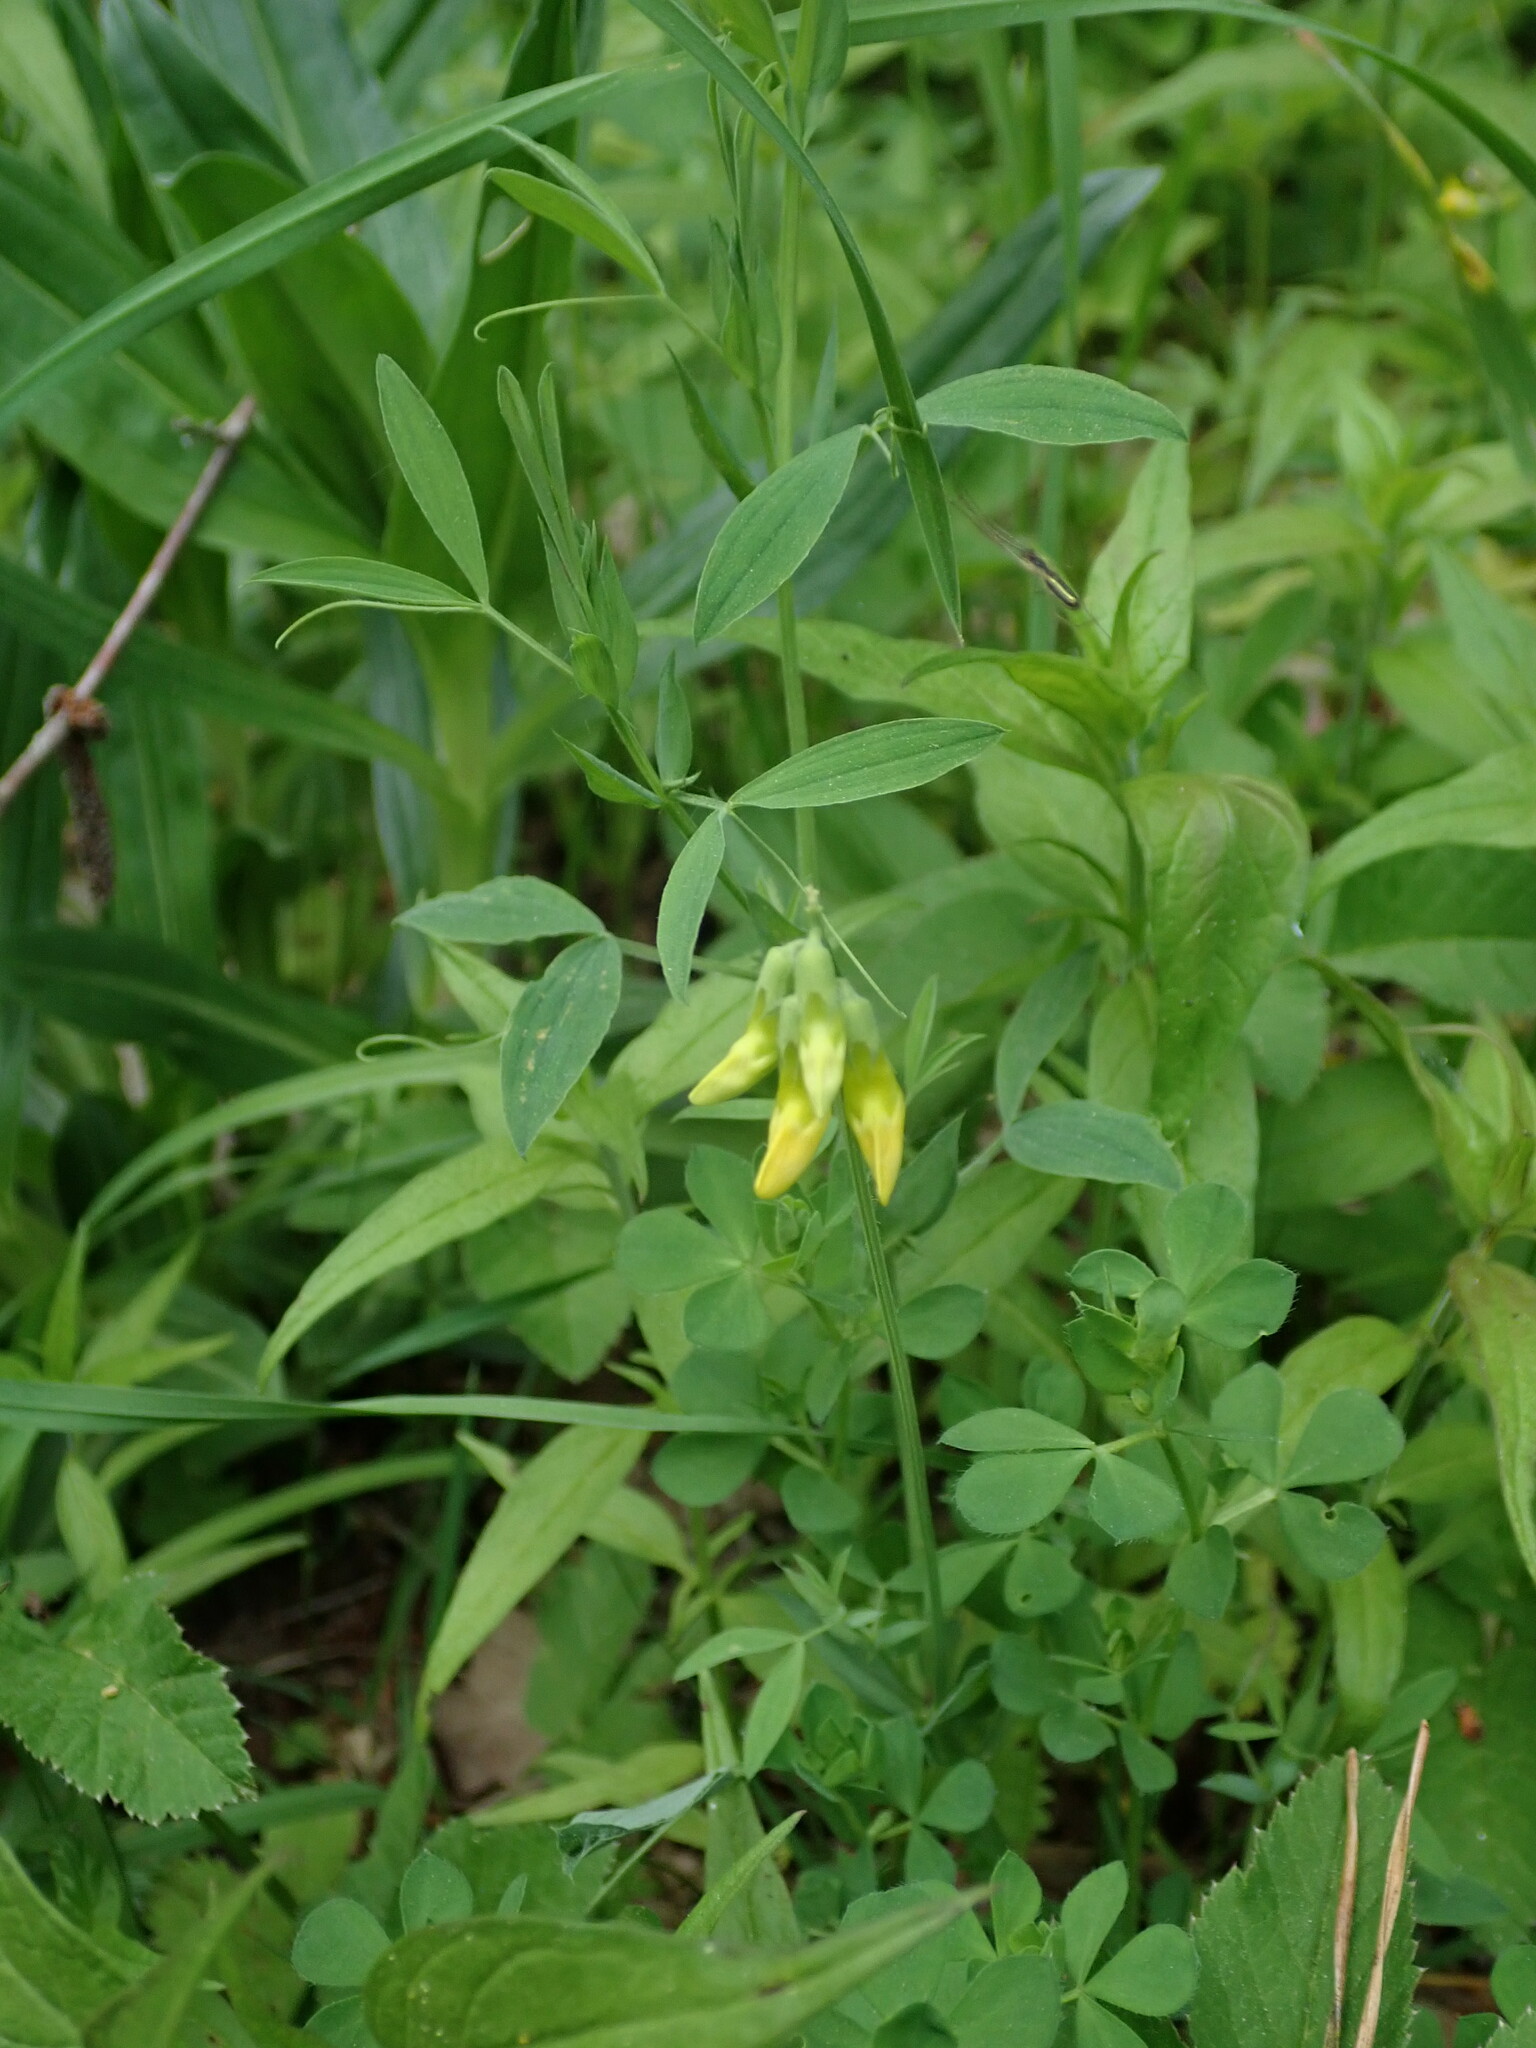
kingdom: Plantae
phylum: Tracheophyta
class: Magnoliopsida
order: Fabales
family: Fabaceae
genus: Lathyrus
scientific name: Lathyrus pratensis
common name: Meadow vetchling
